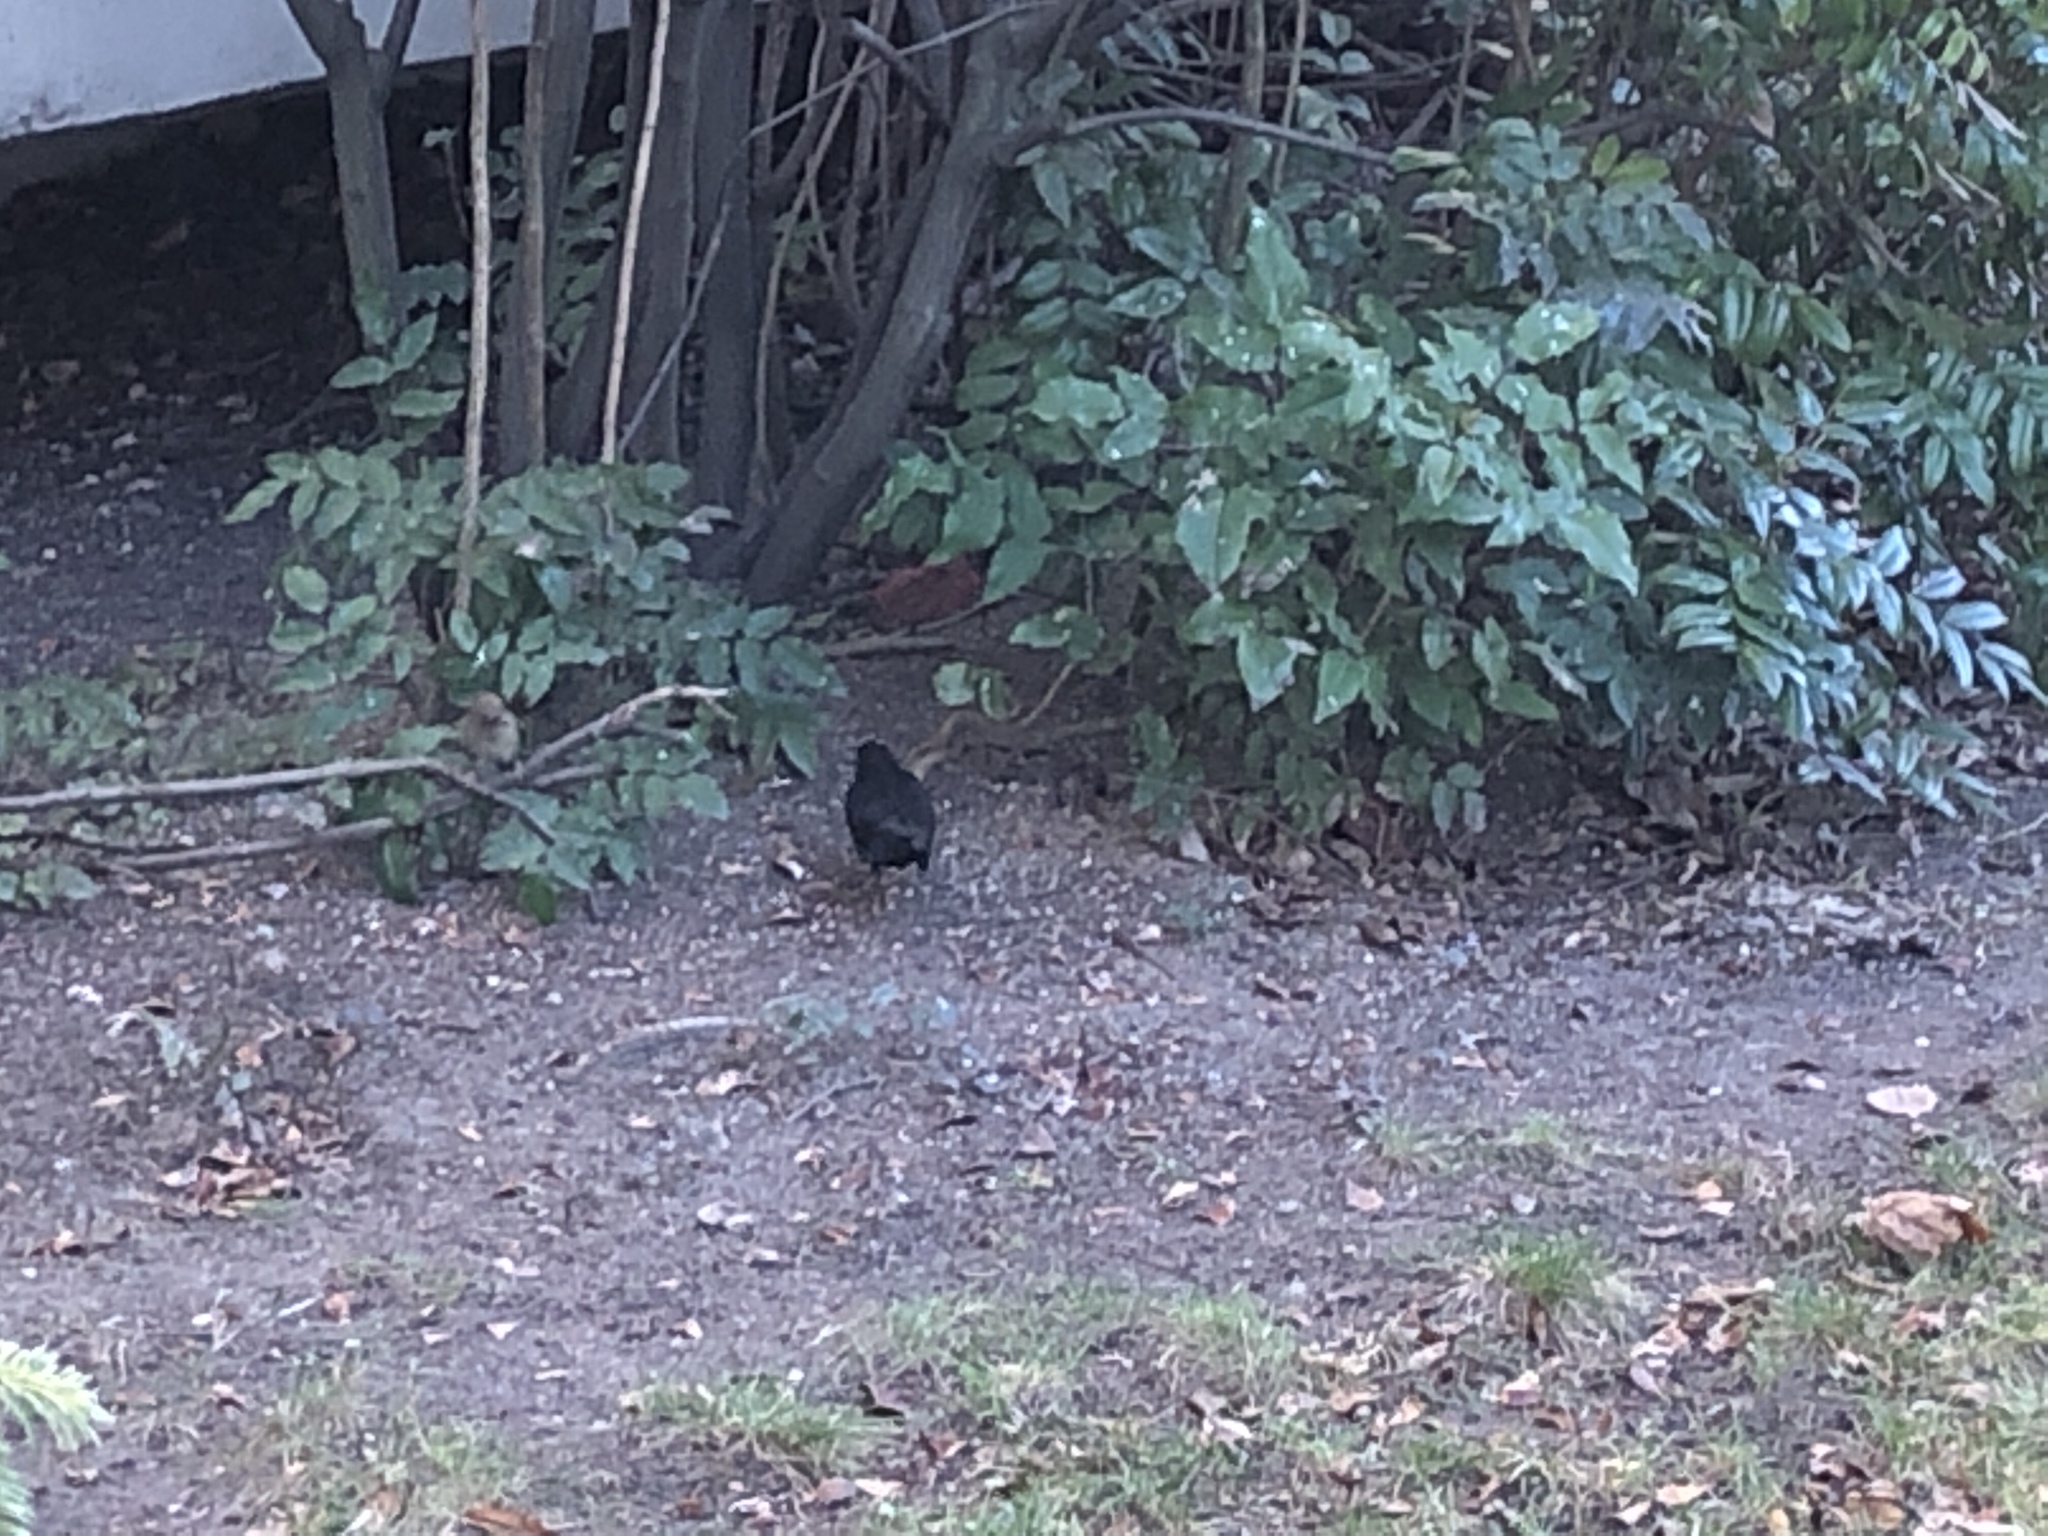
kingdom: Animalia
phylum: Chordata
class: Aves
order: Passeriformes
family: Turdidae
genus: Turdus
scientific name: Turdus merula
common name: Common blackbird
